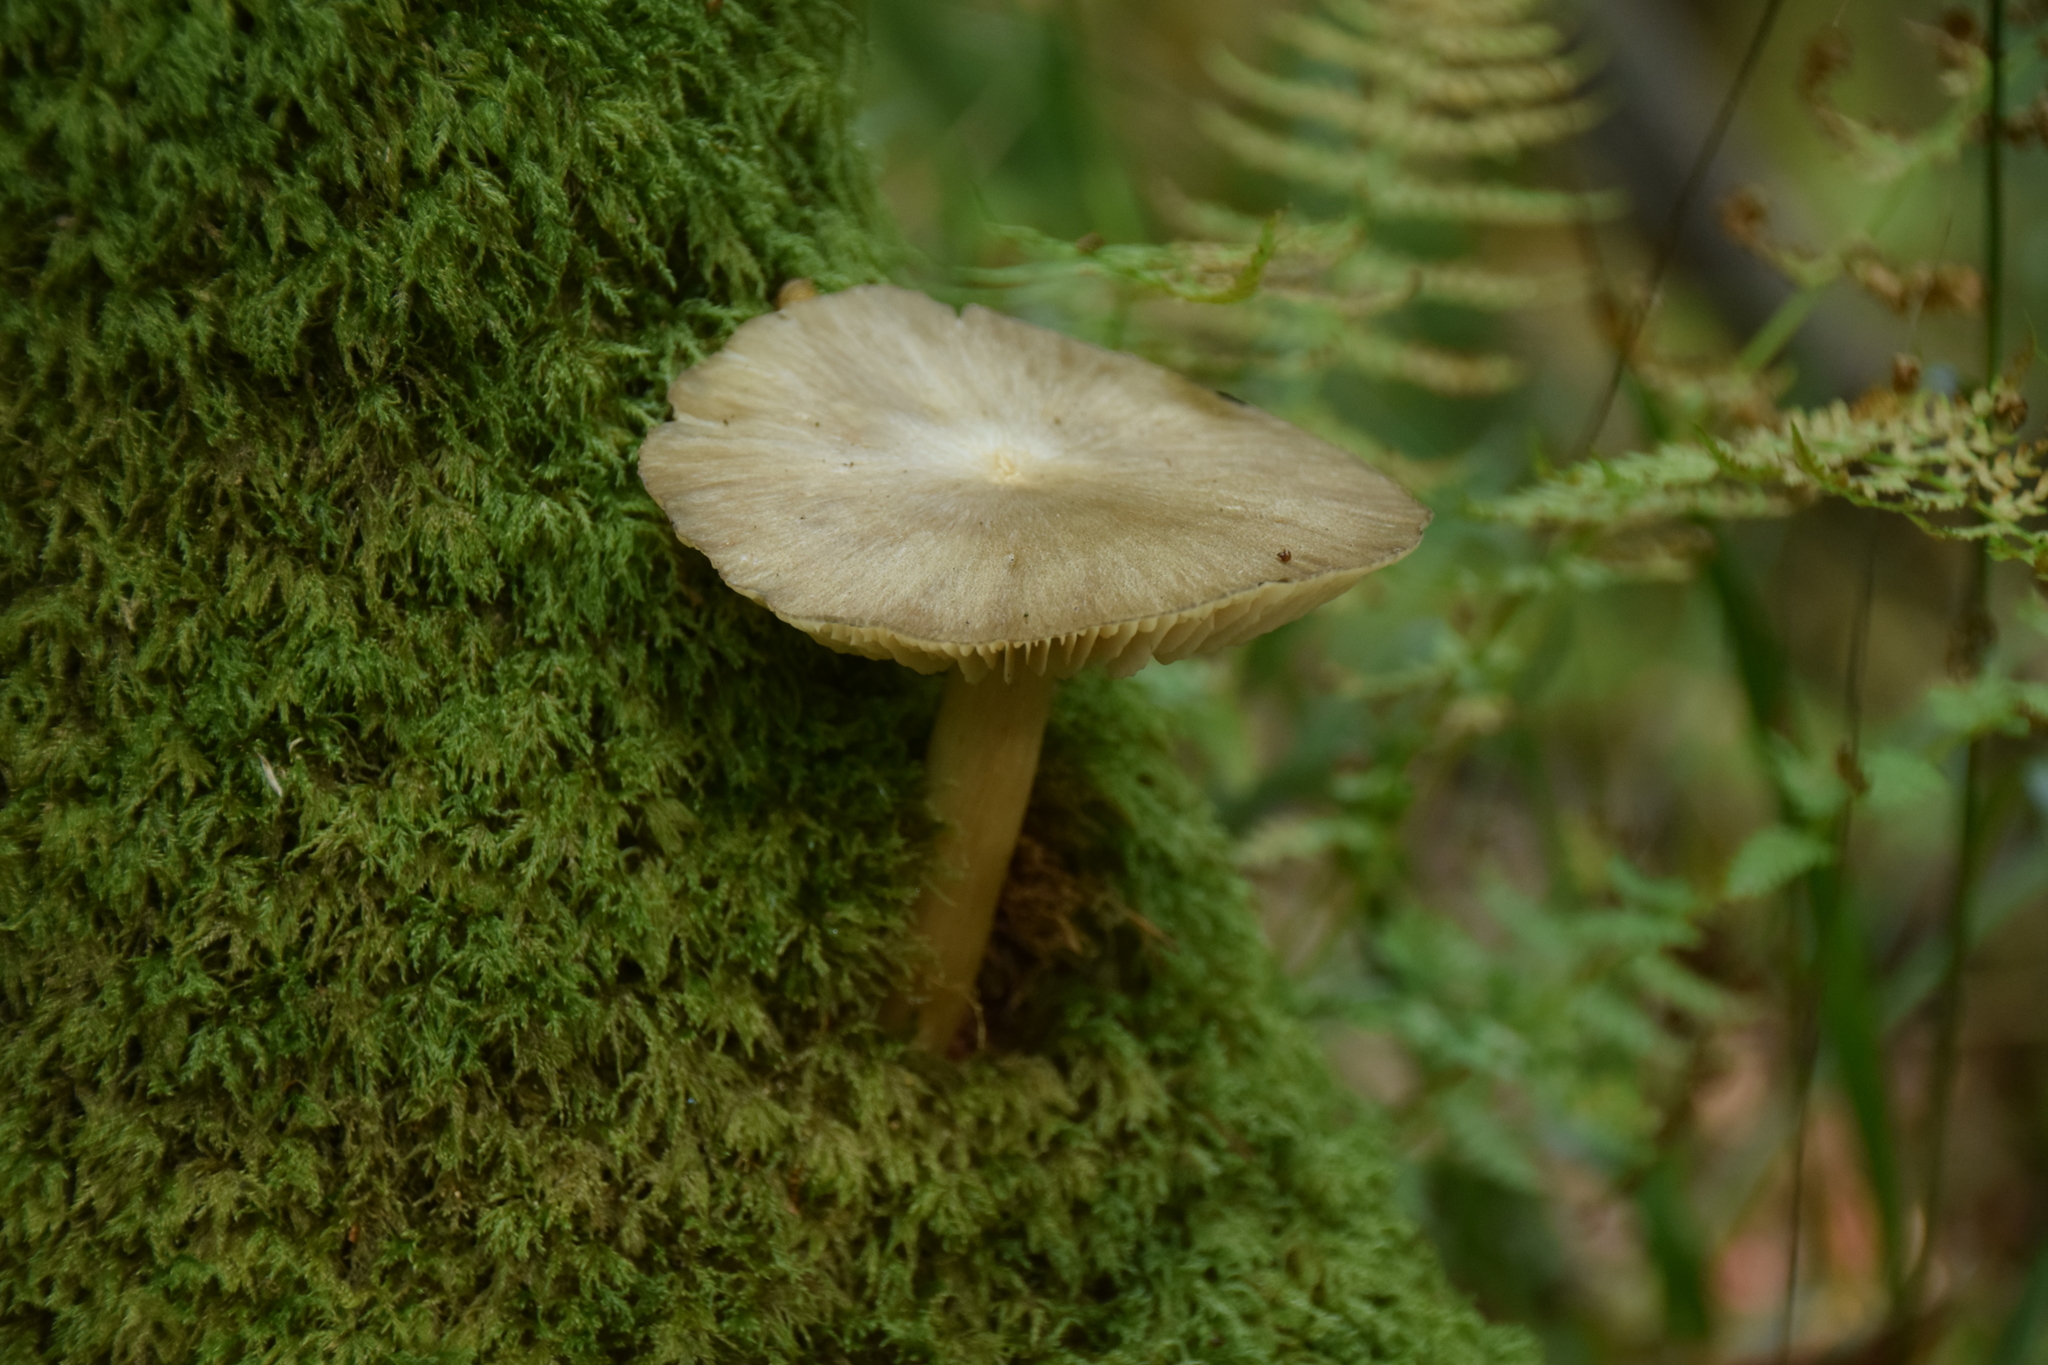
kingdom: Fungi
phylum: Basidiomycota
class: Agaricomycetes
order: Agaricales
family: Tricholomataceae
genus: Megacollybia
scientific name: Megacollybia platyphylla
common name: Whitelaced shank
